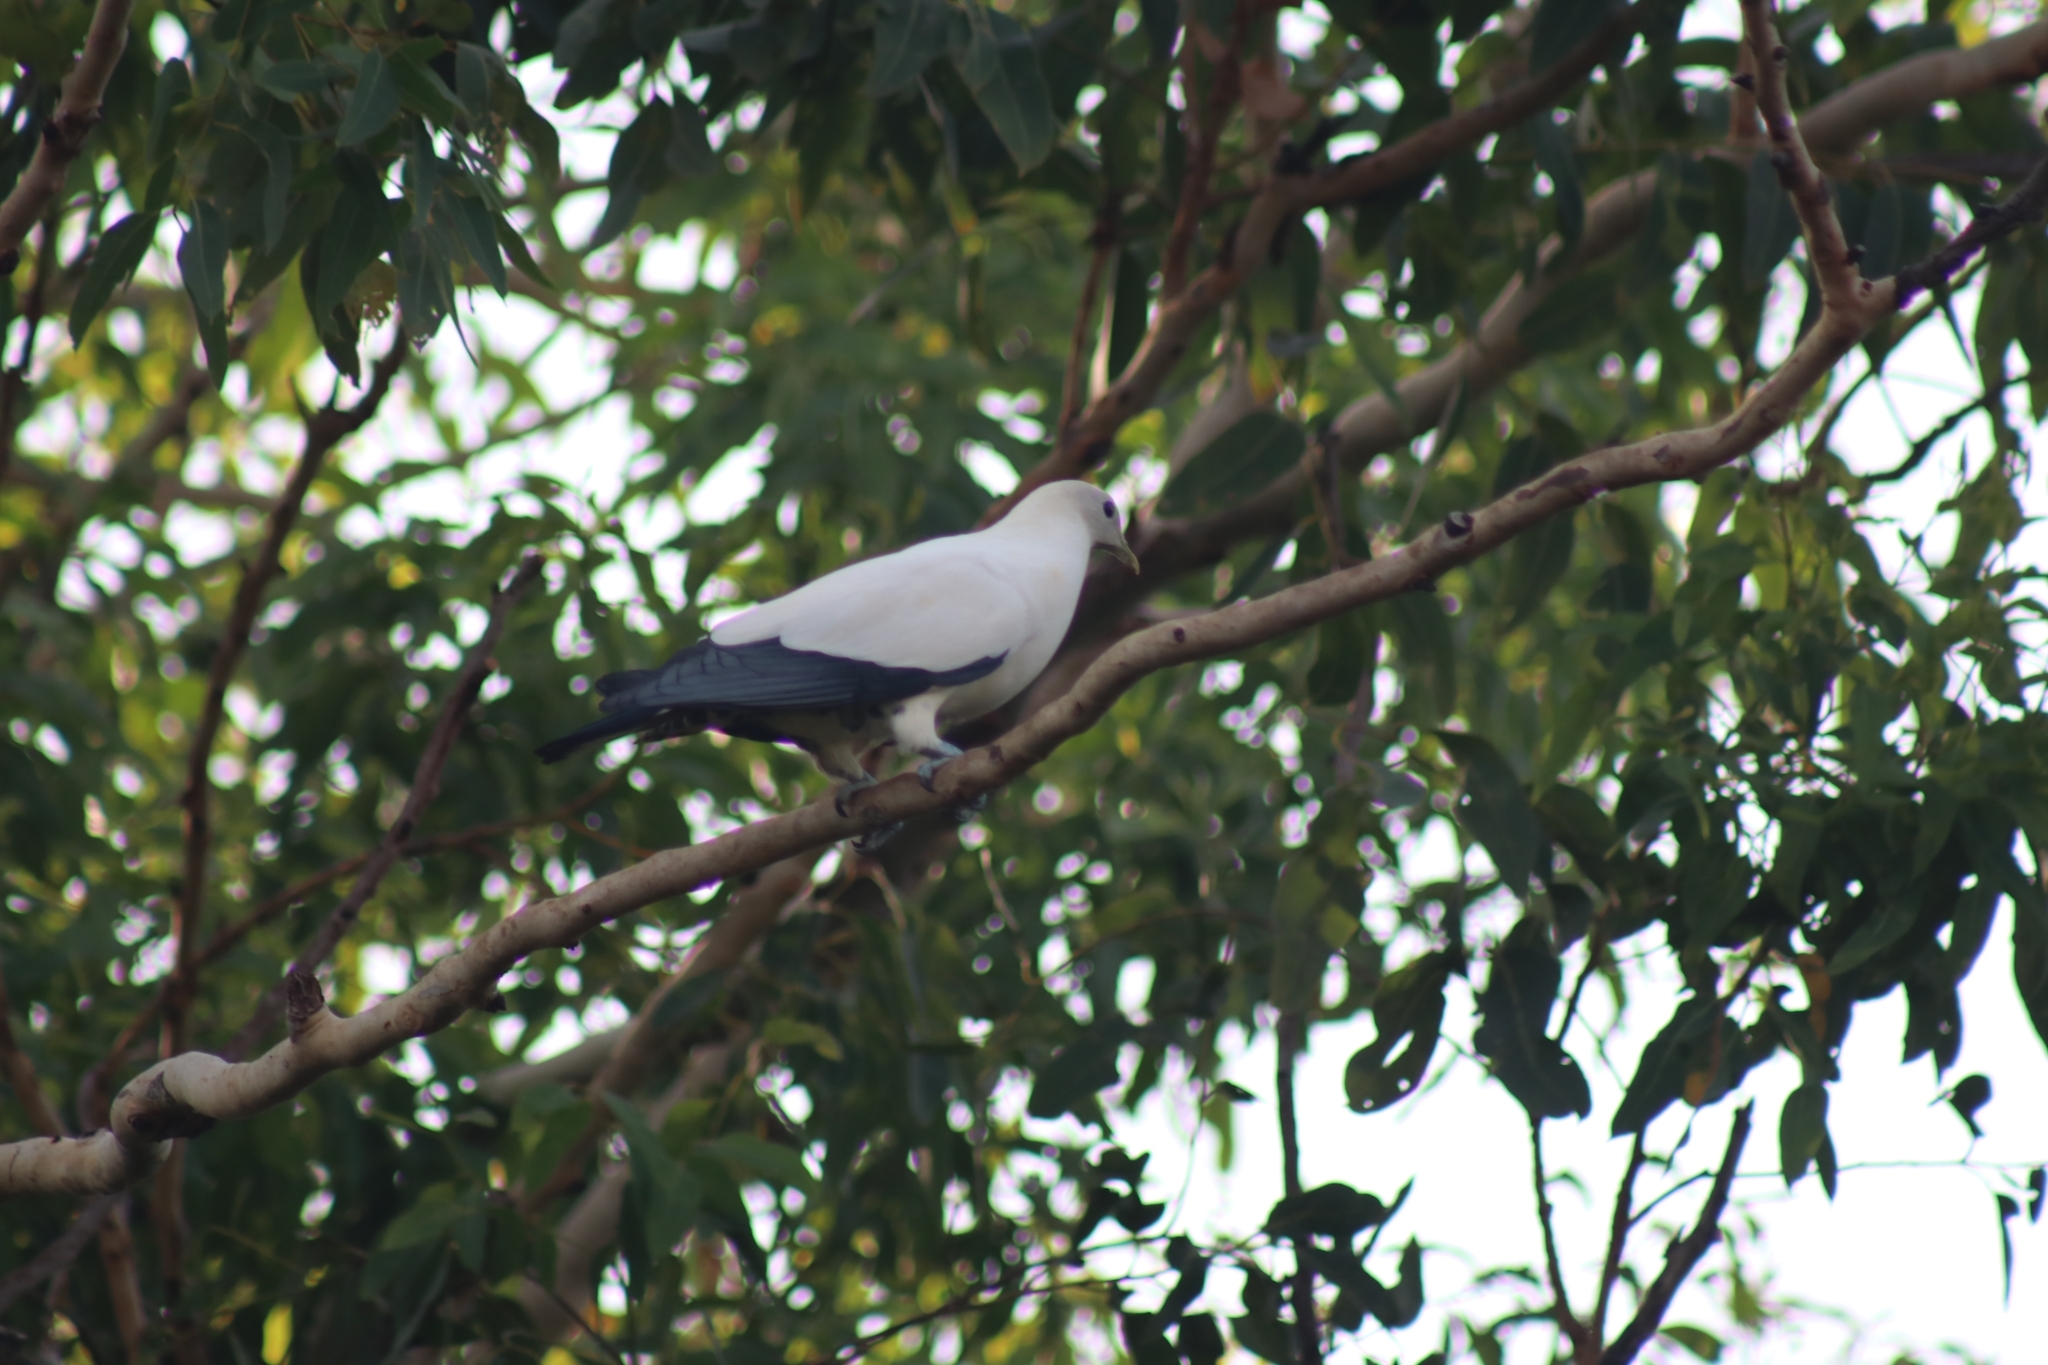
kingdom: Animalia
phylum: Chordata
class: Aves
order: Columbiformes
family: Columbidae
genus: Ducula
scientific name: Ducula spilorrhoa
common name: Torresian imperial pigeon
